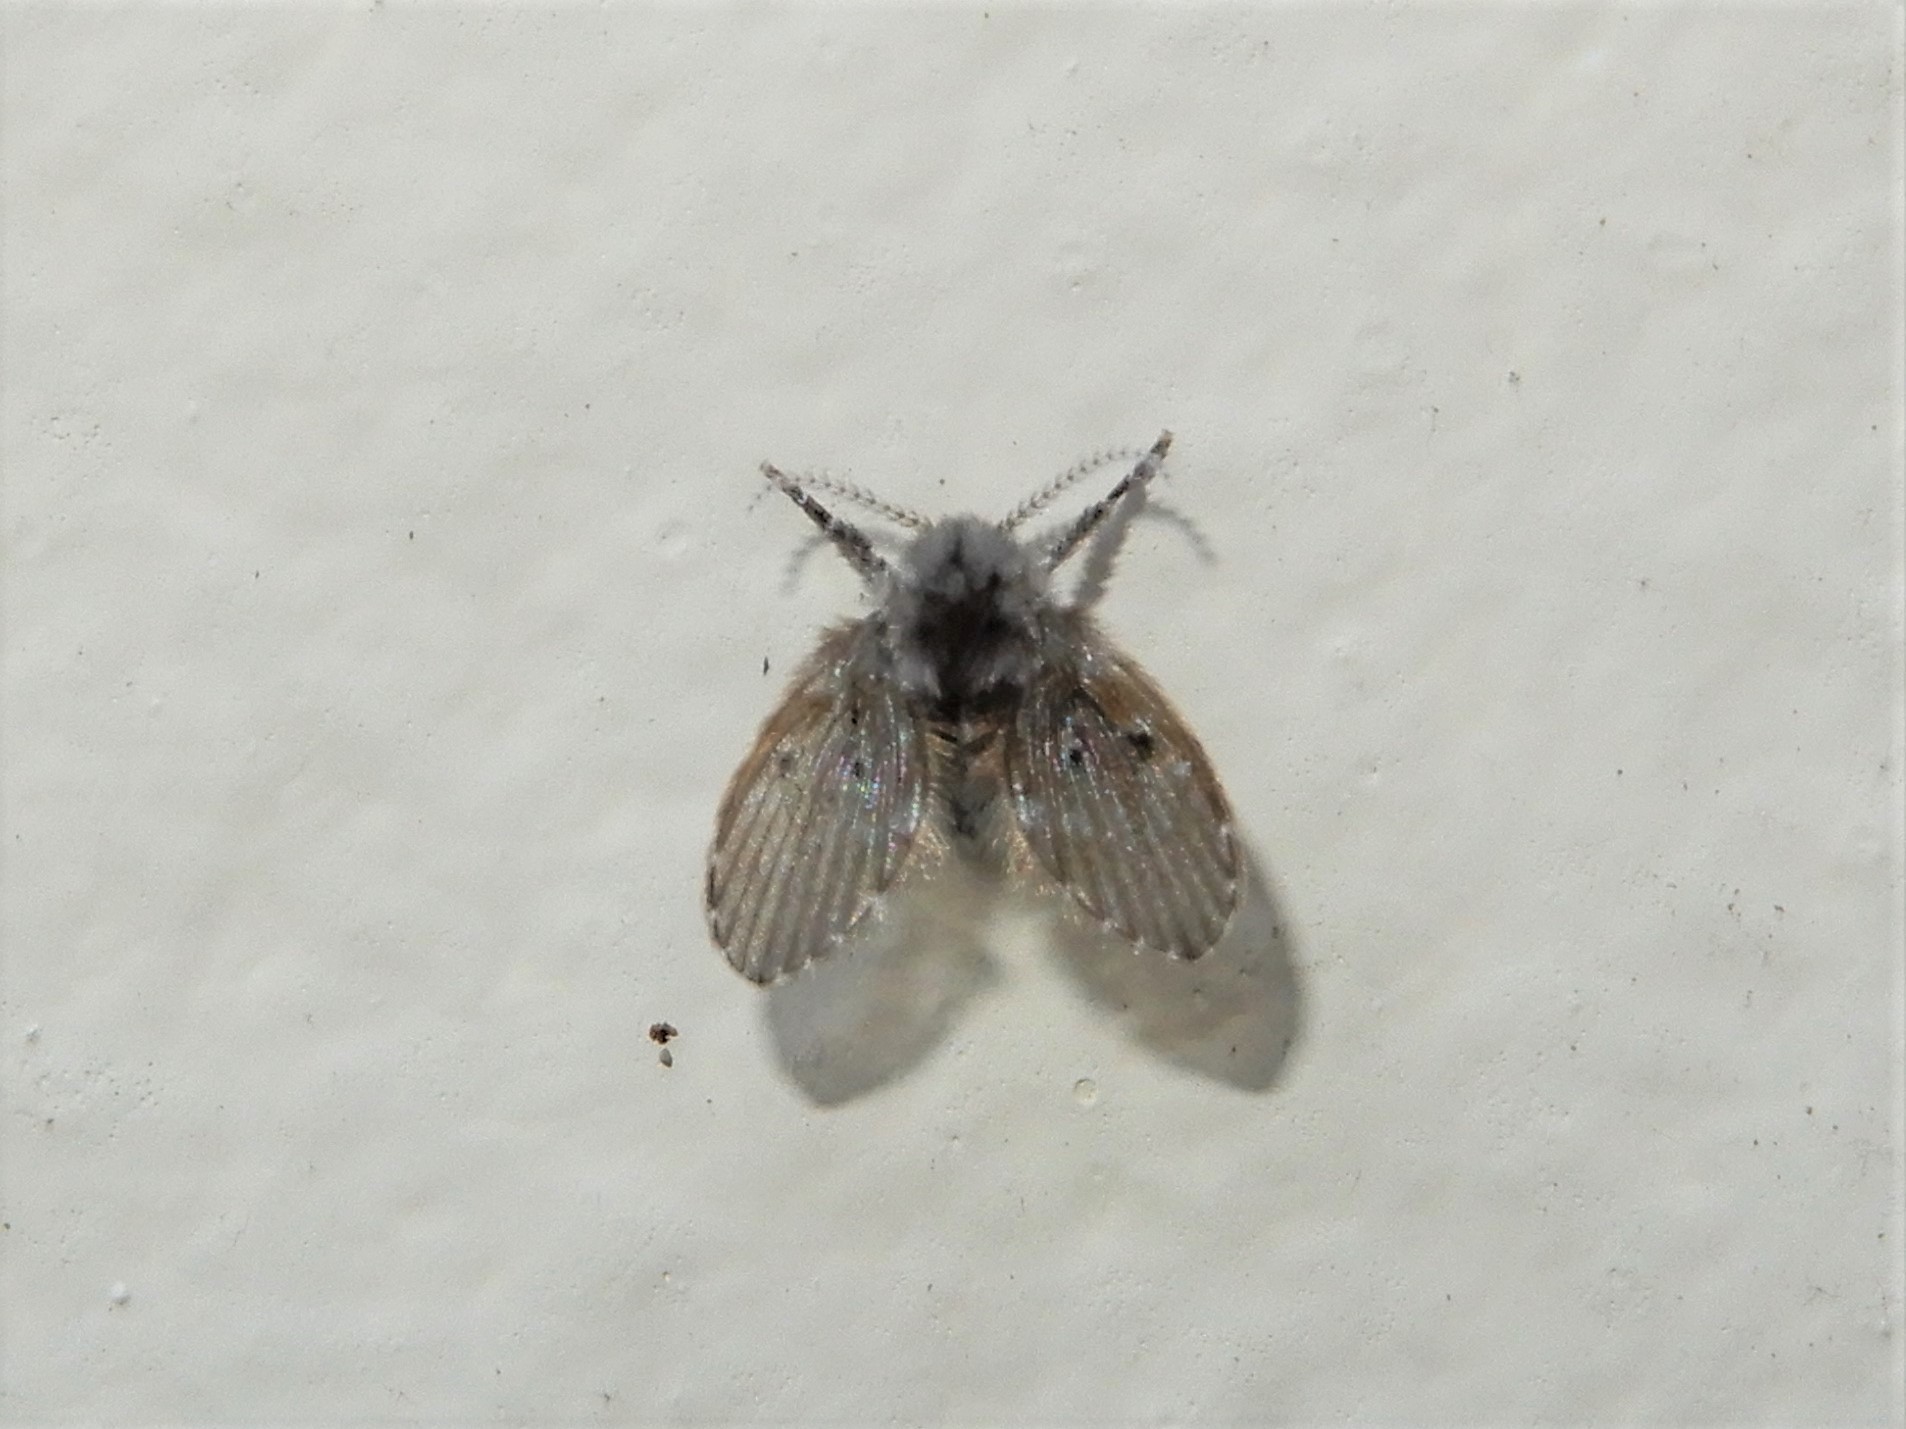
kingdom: Animalia
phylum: Arthropoda
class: Insecta
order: Diptera
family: Psychodidae
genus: Clogmia
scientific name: Clogmia albipunctatus
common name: White-spotted moth fly
